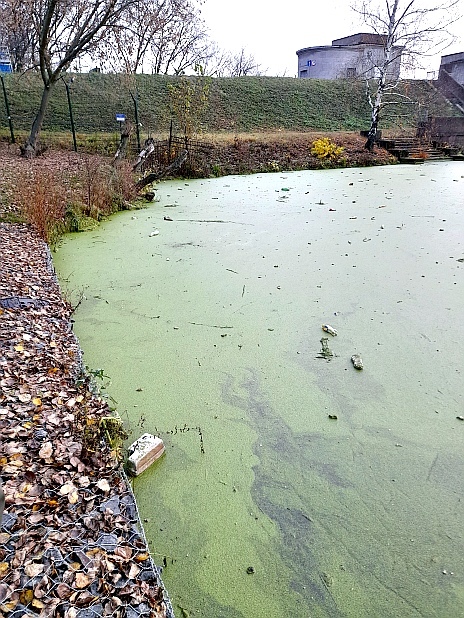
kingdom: Plantae
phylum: Tracheophyta
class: Liliopsida
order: Alismatales
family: Araceae
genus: Lemna
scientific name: Lemna minor
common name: Common duckweed
